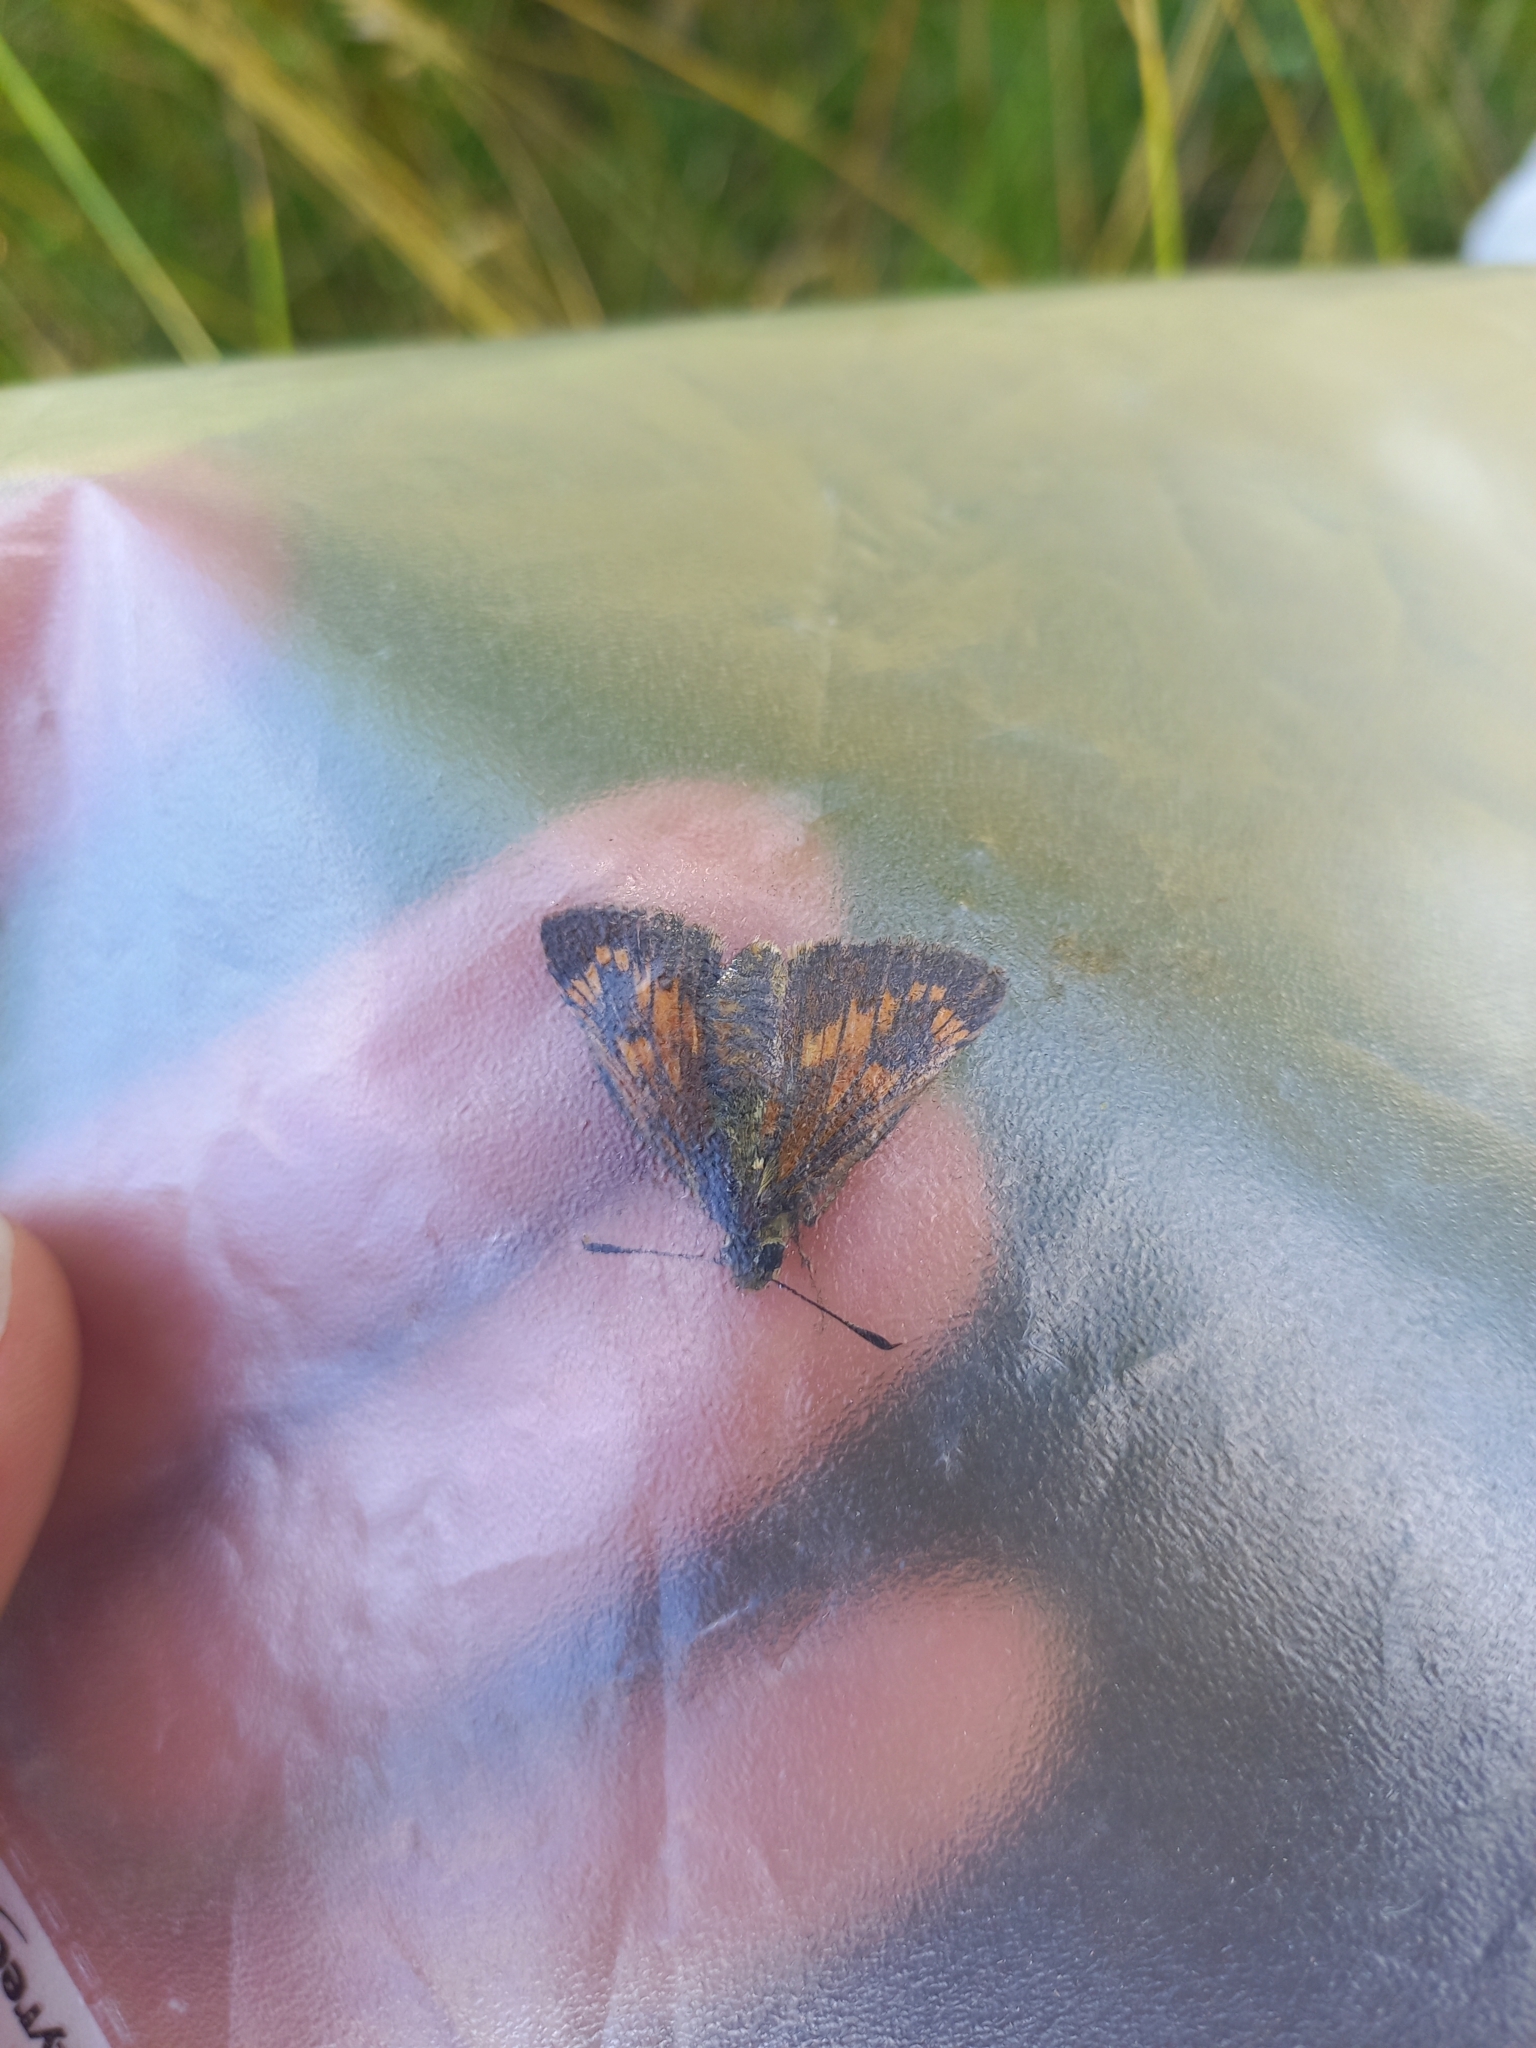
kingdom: Animalia
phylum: Arthropoda
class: Insecta
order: Lepidoptera
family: Hesperiidae
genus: Ochlodes
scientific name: Ochlodes venata
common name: Large skipper
